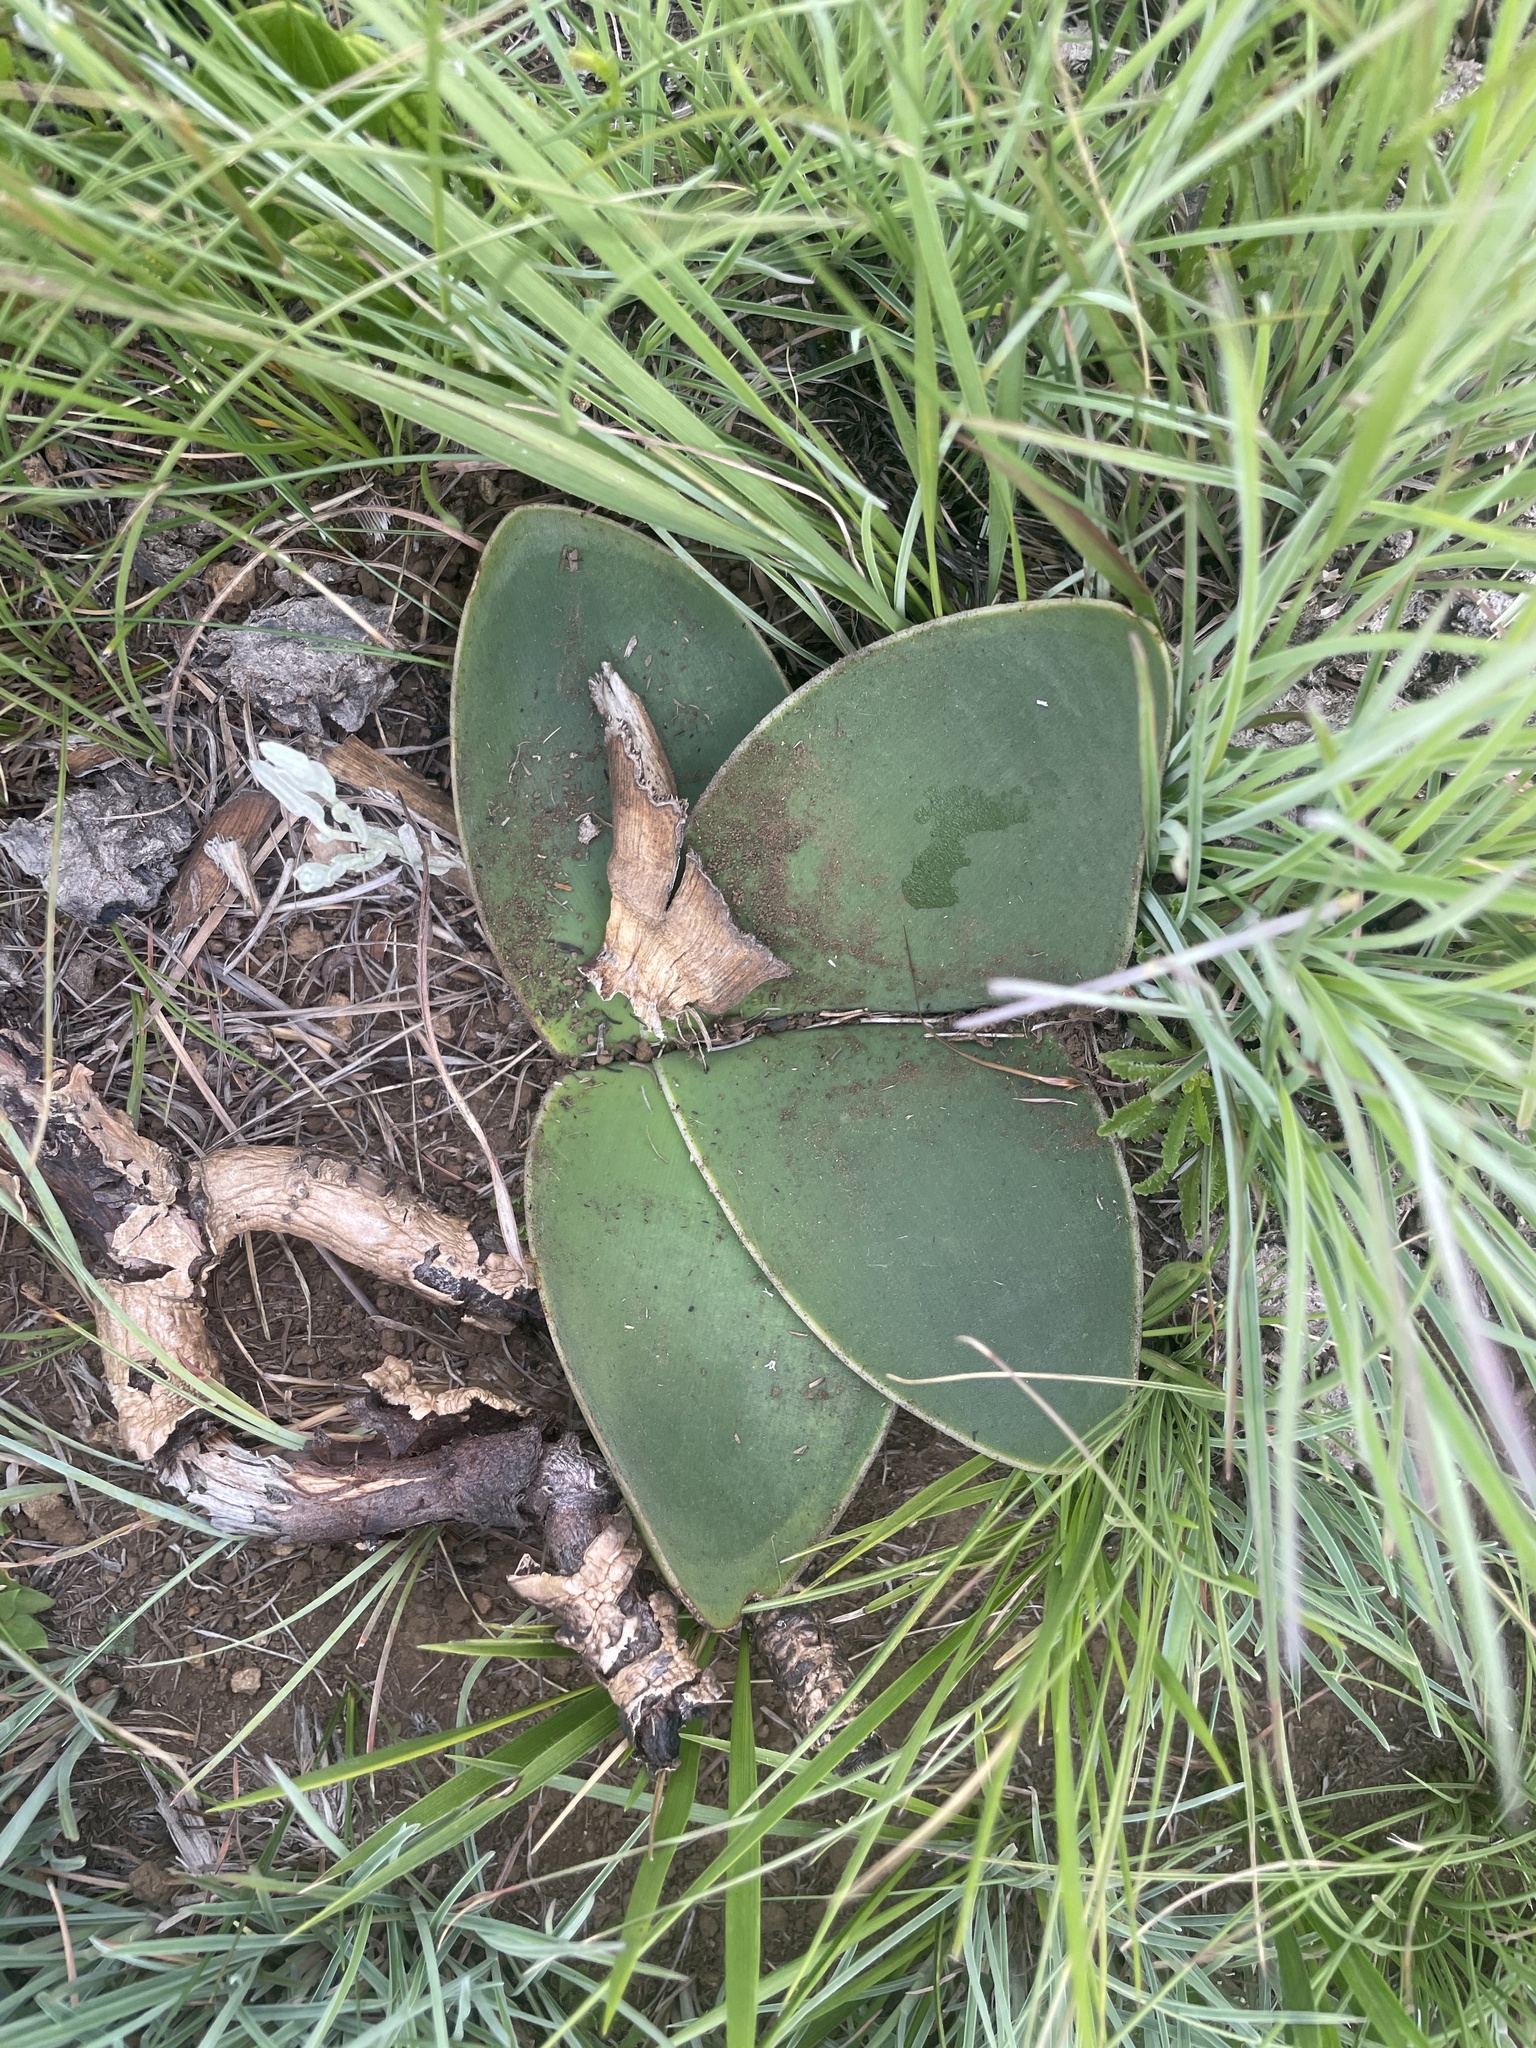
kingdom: Plantae
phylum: Tracheophyta
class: Liliopsida
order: Asparagales
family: Amaryllidaceae
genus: Brunsvigia
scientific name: Brunsvigia radulosa
